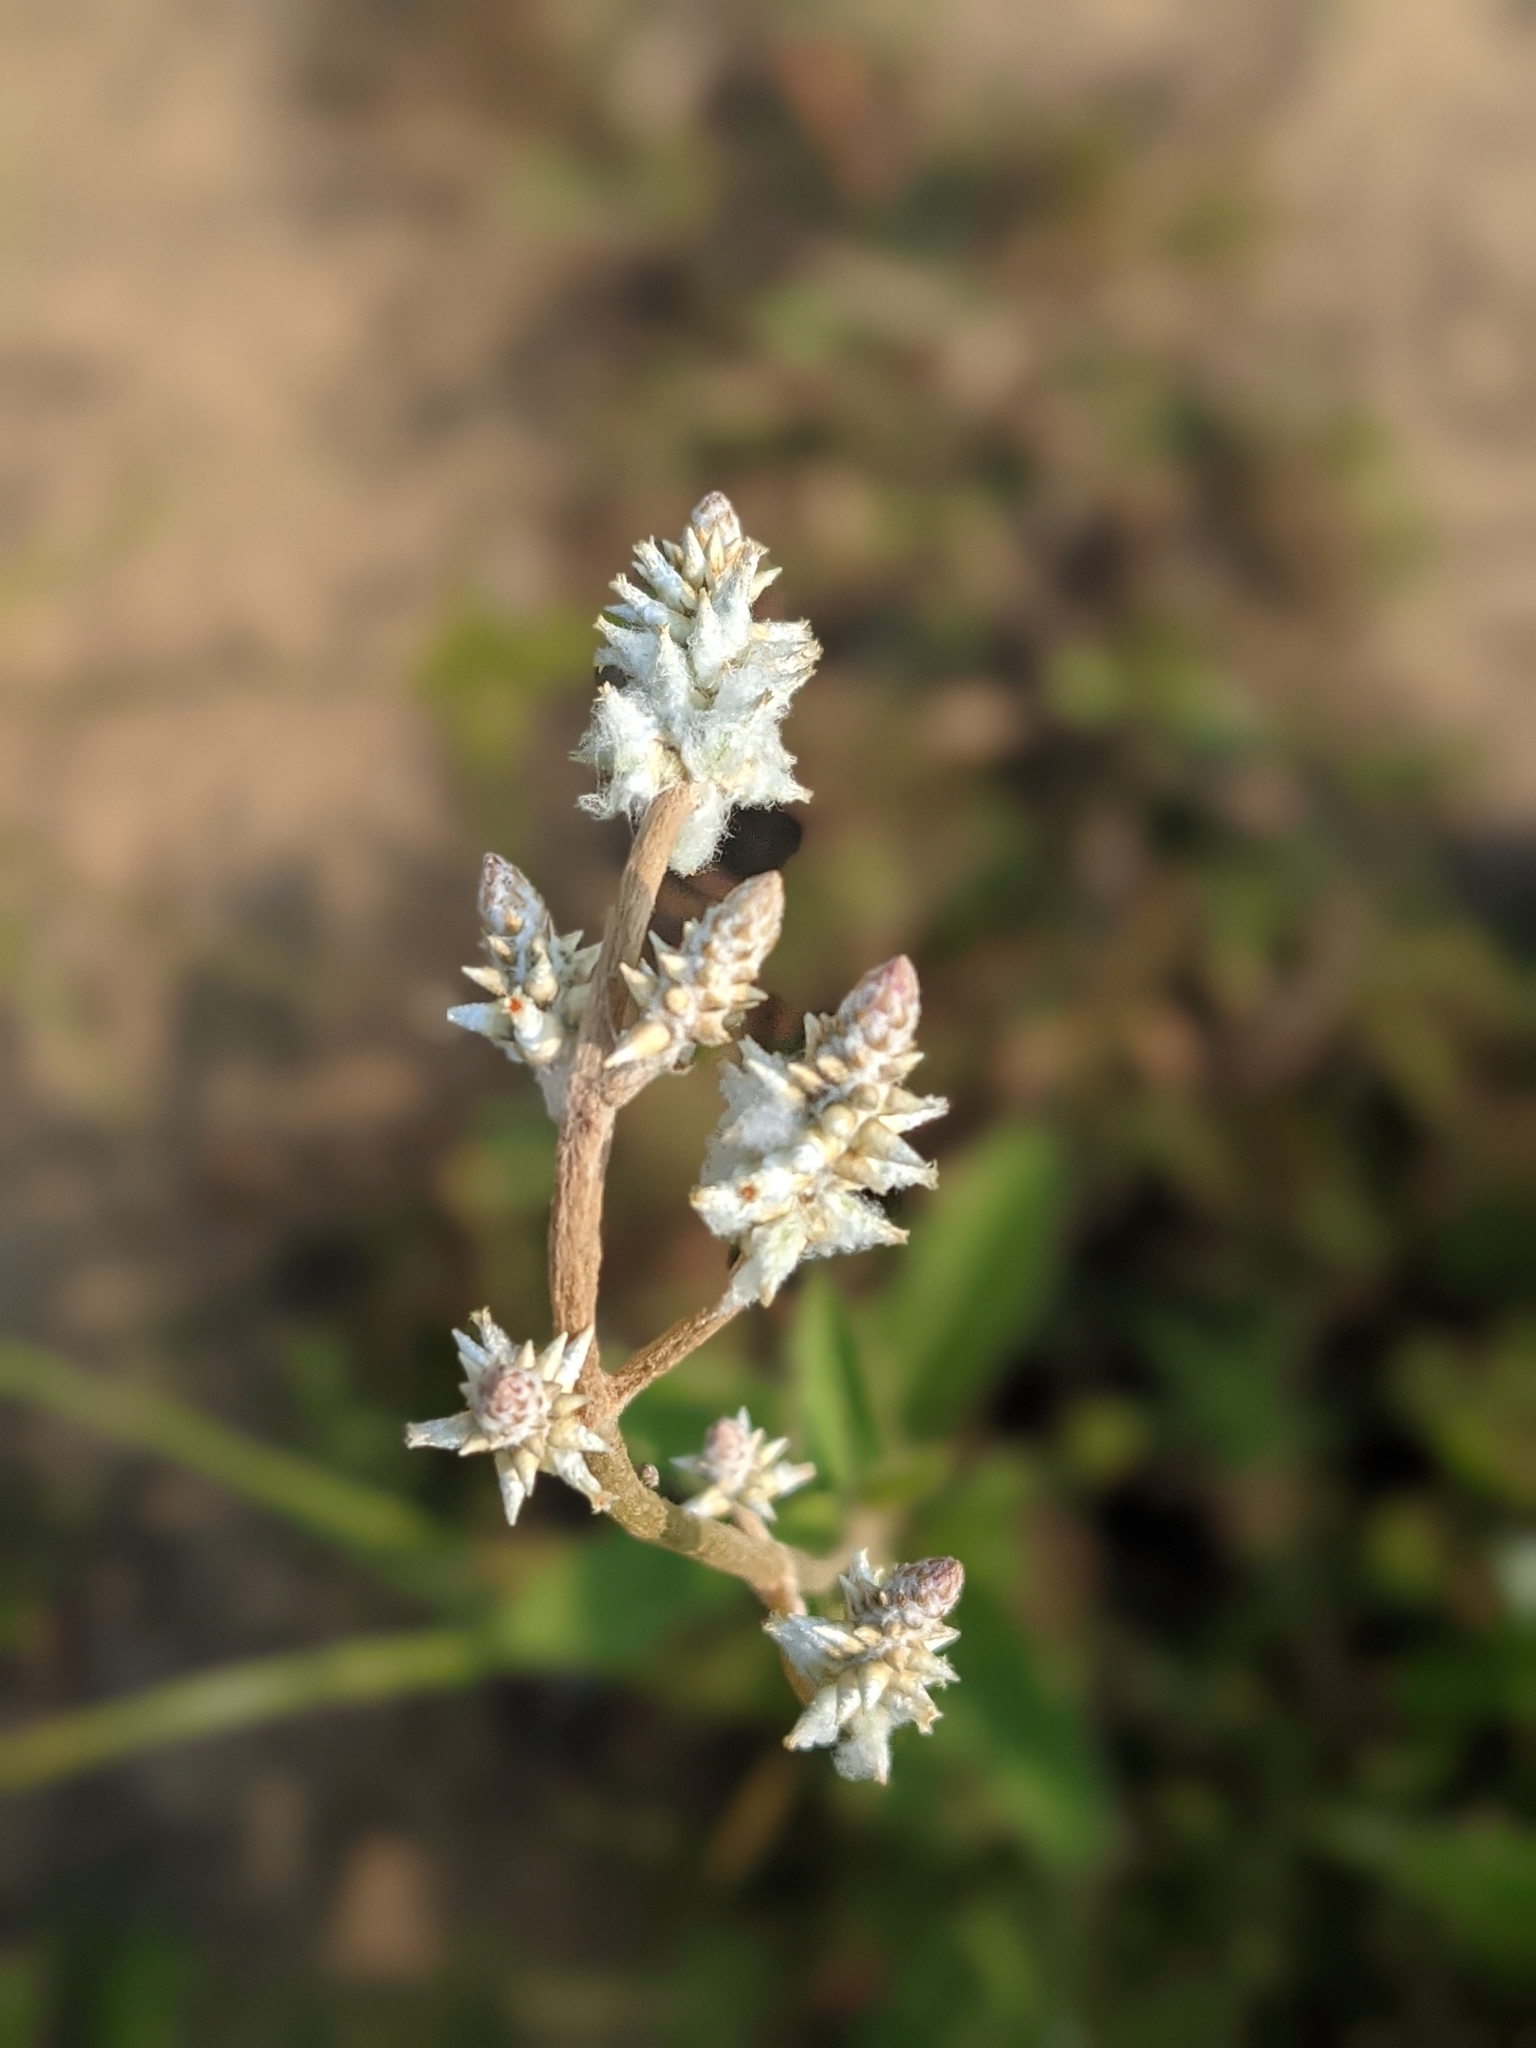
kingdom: Plantae
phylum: Tracheophyta
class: Magnoliopsida
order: Caryophyllales
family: Amaranthaceae
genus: Froelichia
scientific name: Froelichia floridana
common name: Florida snake-cotton
